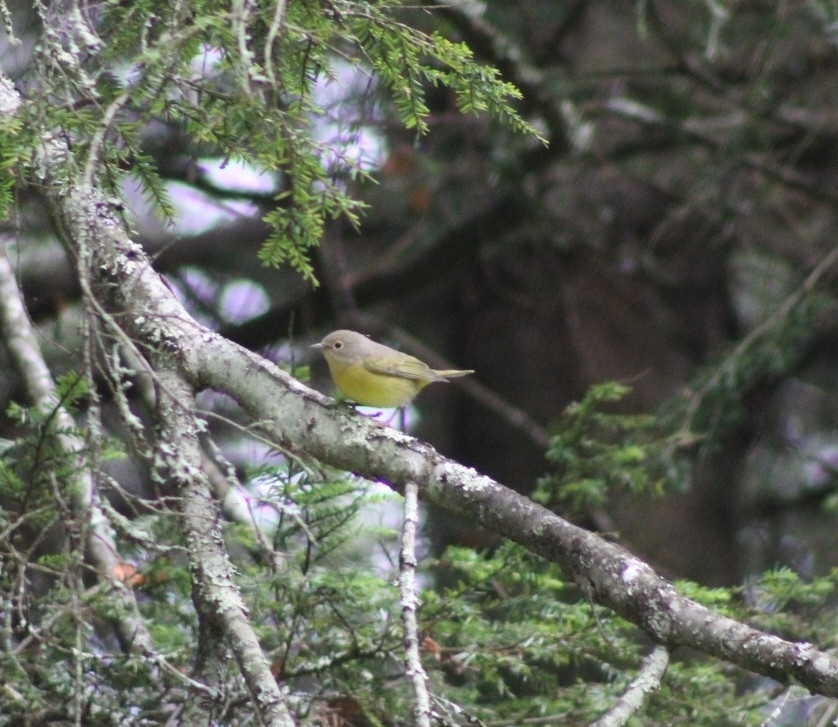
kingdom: Animalia
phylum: Chordata
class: Aves
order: Passeriformes
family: Parulidae
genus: Leiothlypis
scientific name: Leiothlypis ruficapilla
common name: Nashville warbler
